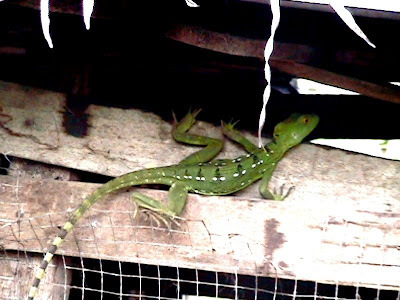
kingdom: Animalia
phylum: Chordata
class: Squamata
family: Corytophanidae
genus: Basiliscus
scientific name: Basiliscus plumifrons
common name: Green basilisk
